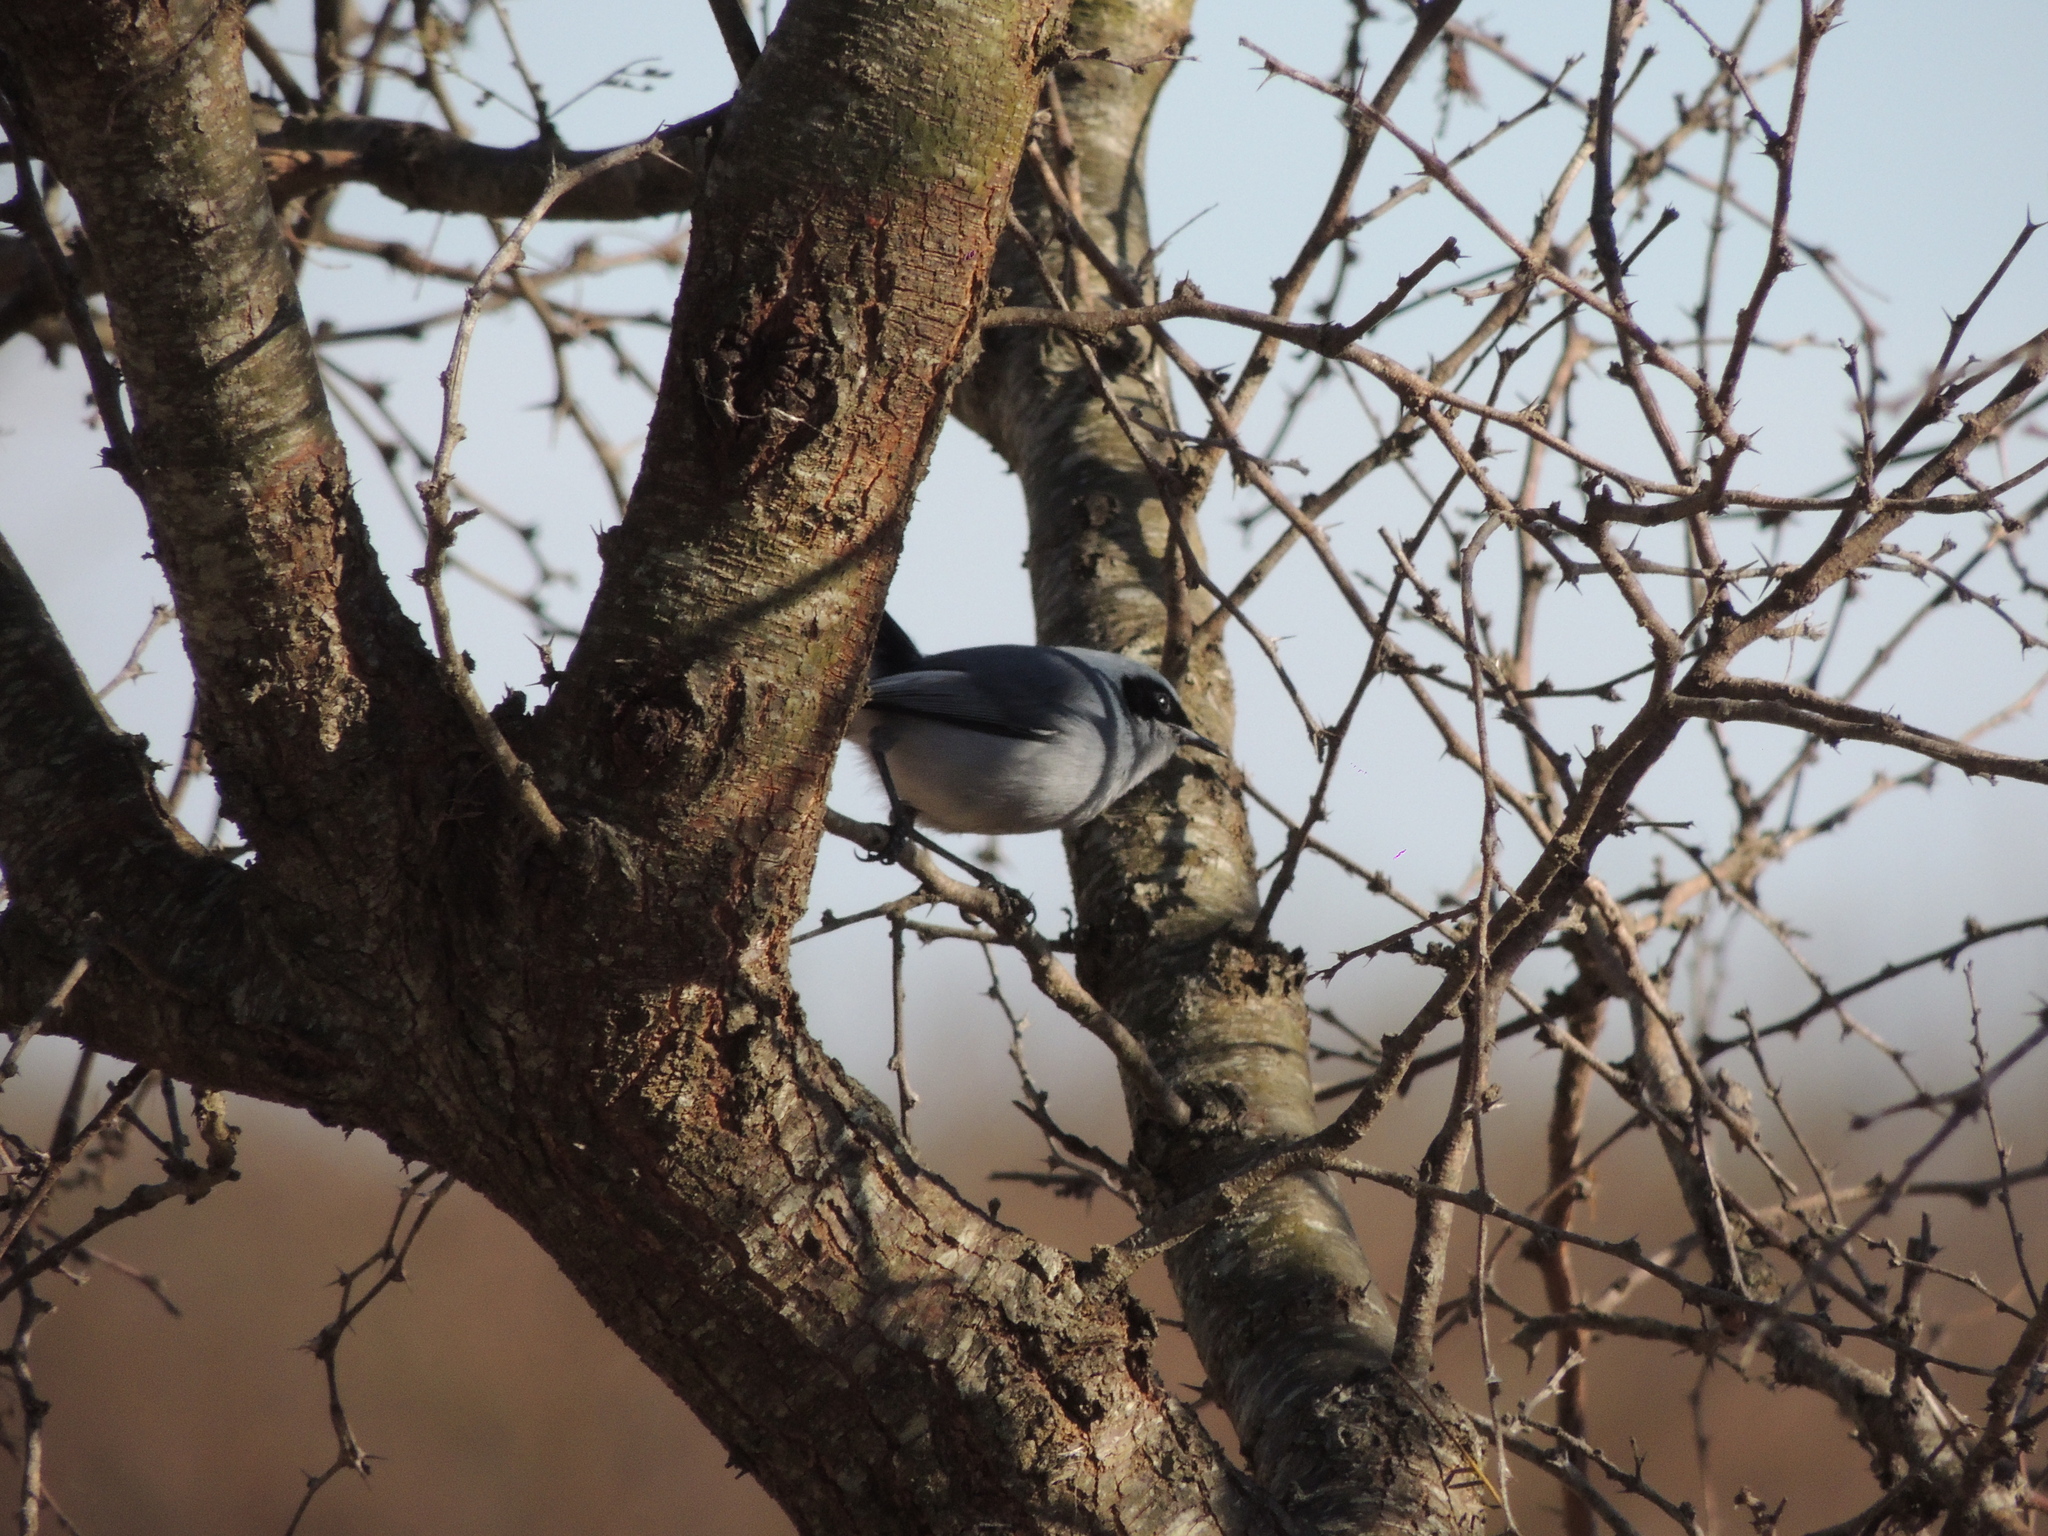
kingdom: Animalia
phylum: Chordata
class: Aves
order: Passeriformes
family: Polioptilidae
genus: Polioptila
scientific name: Polioptila dumicola
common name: Masked gnatcatcher
